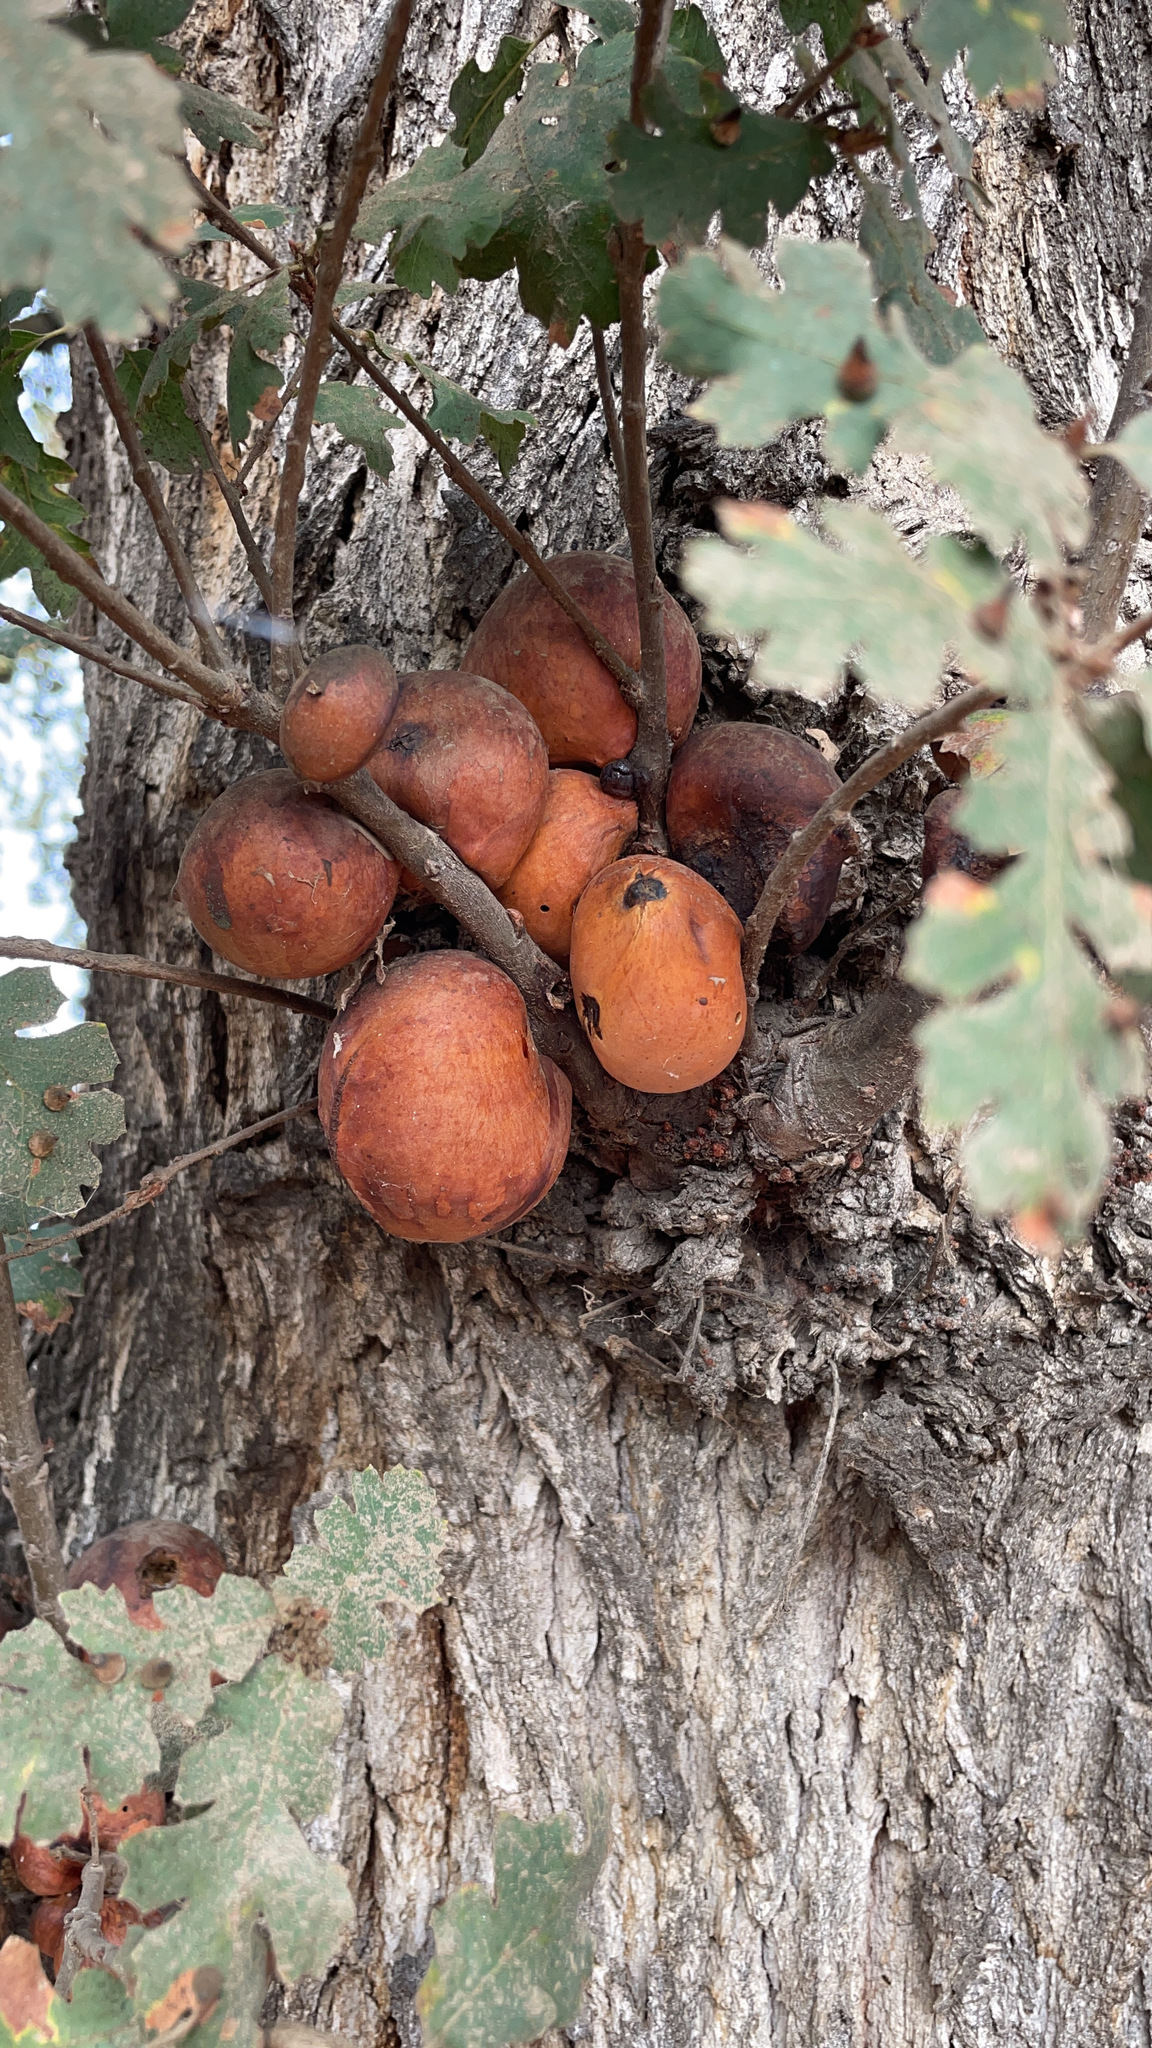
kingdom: Animalia
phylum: Arthropoda
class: Insecta
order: Hymenoptera
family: Cynipidae
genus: Andricus
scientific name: Andricus quercuscalifornicus
